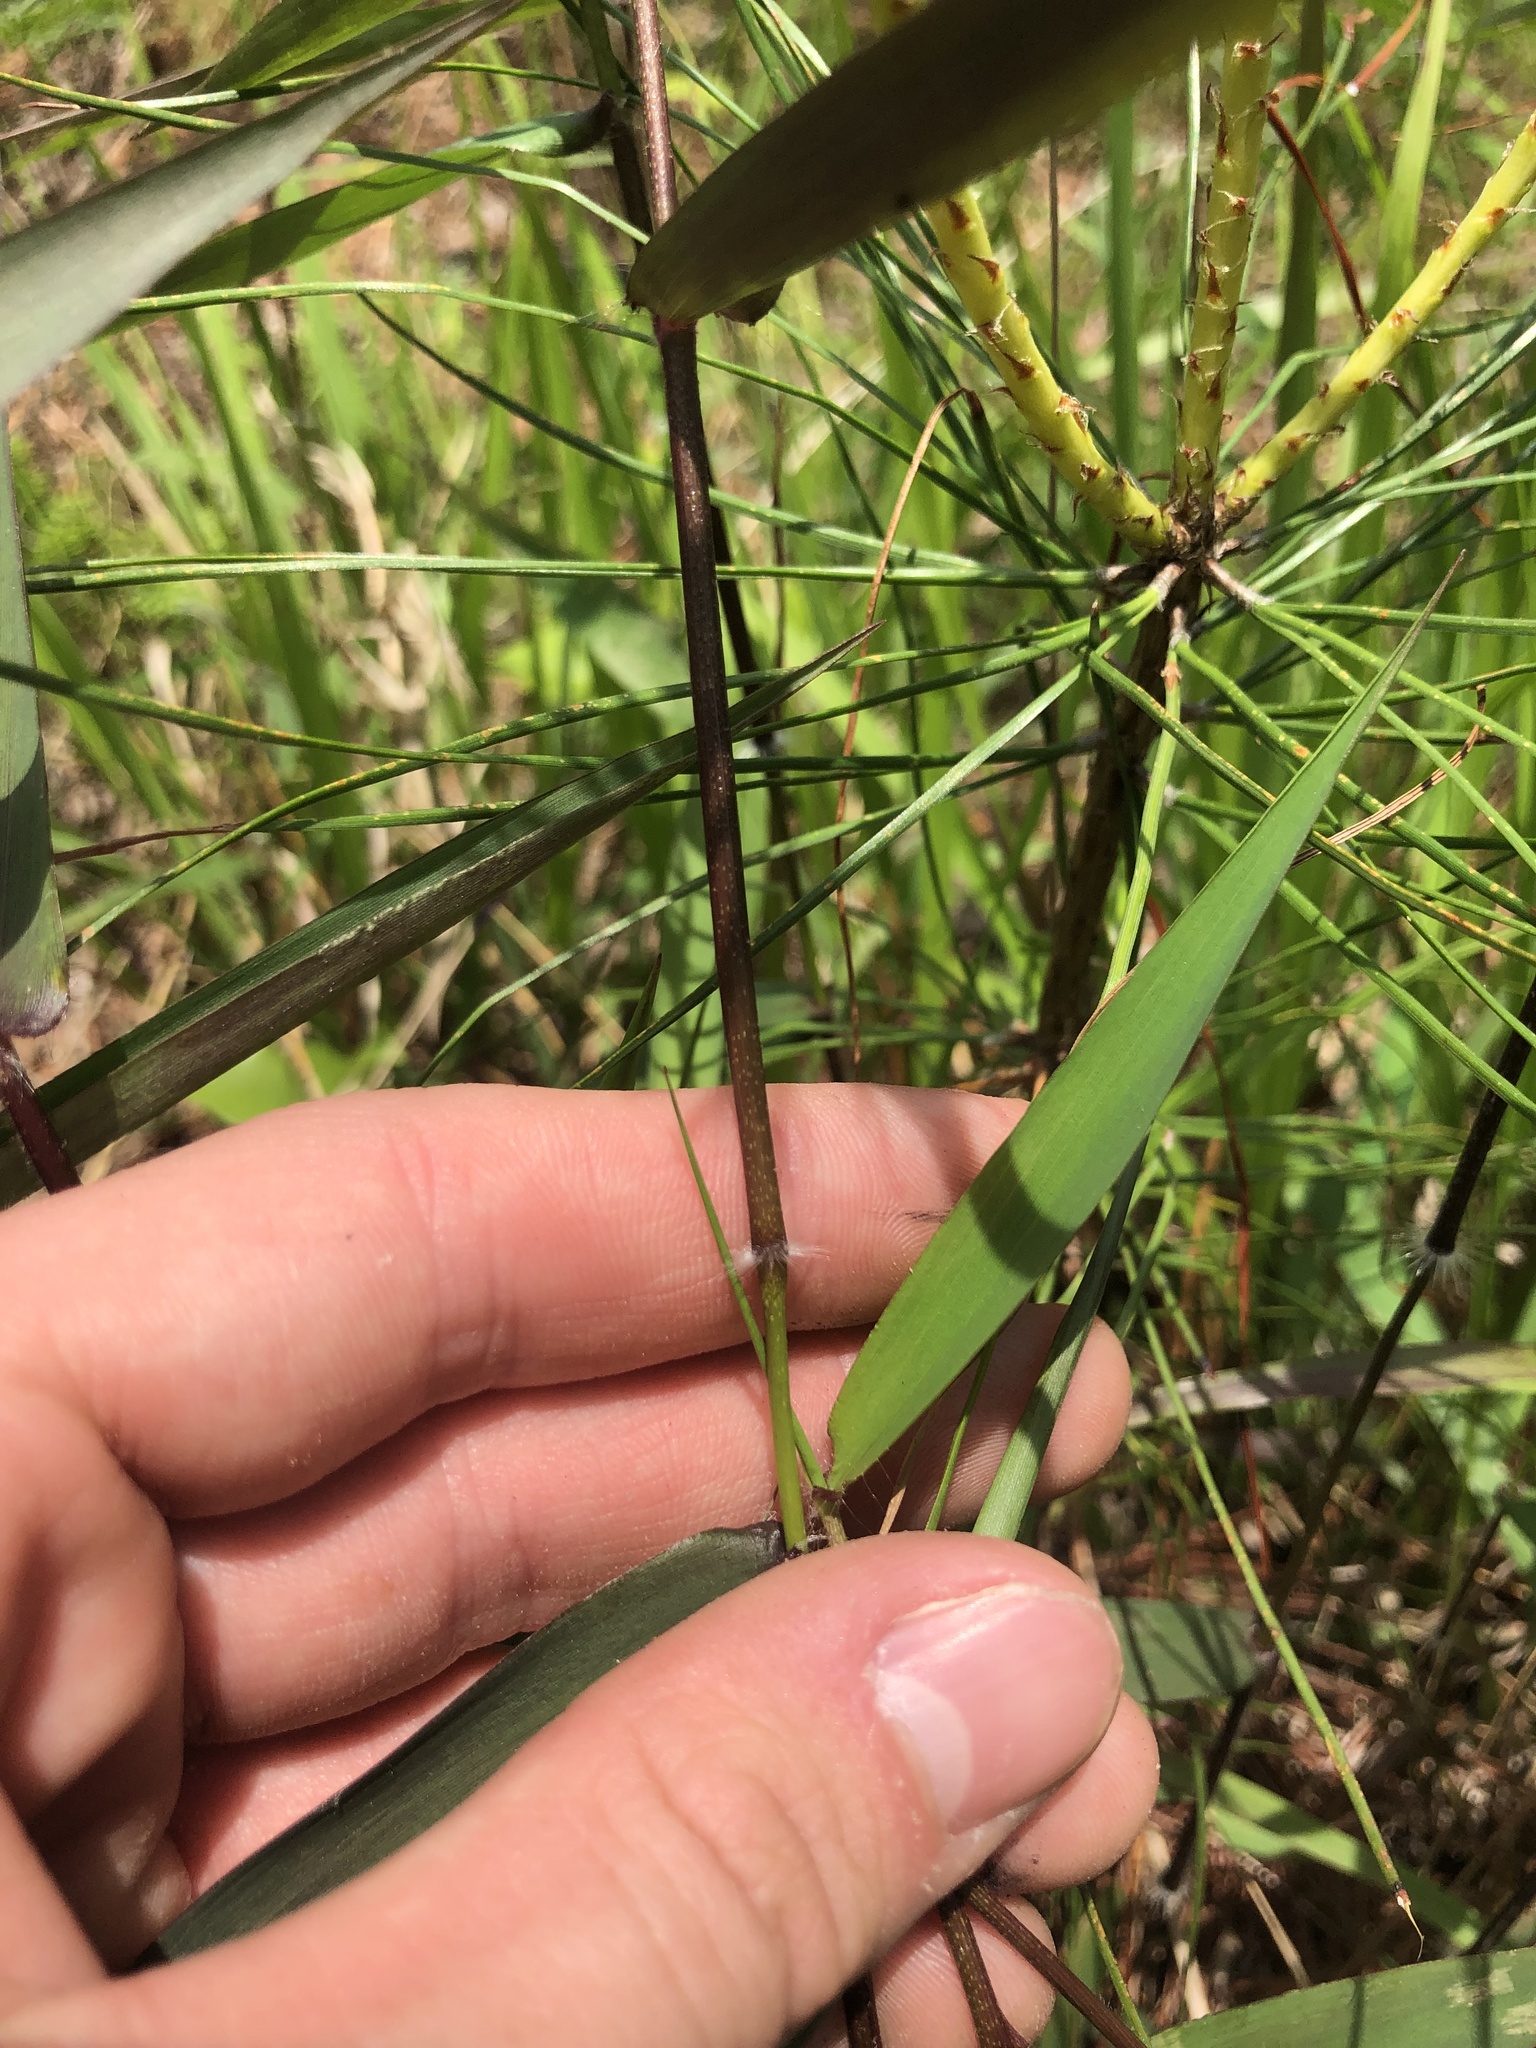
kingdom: Plantae
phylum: Tracheophyta
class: Liliopsida
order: Poales
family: Poaceae
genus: Dichanthelium
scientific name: Dichanthelium microcarpon
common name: Small-fruited witchgrass
